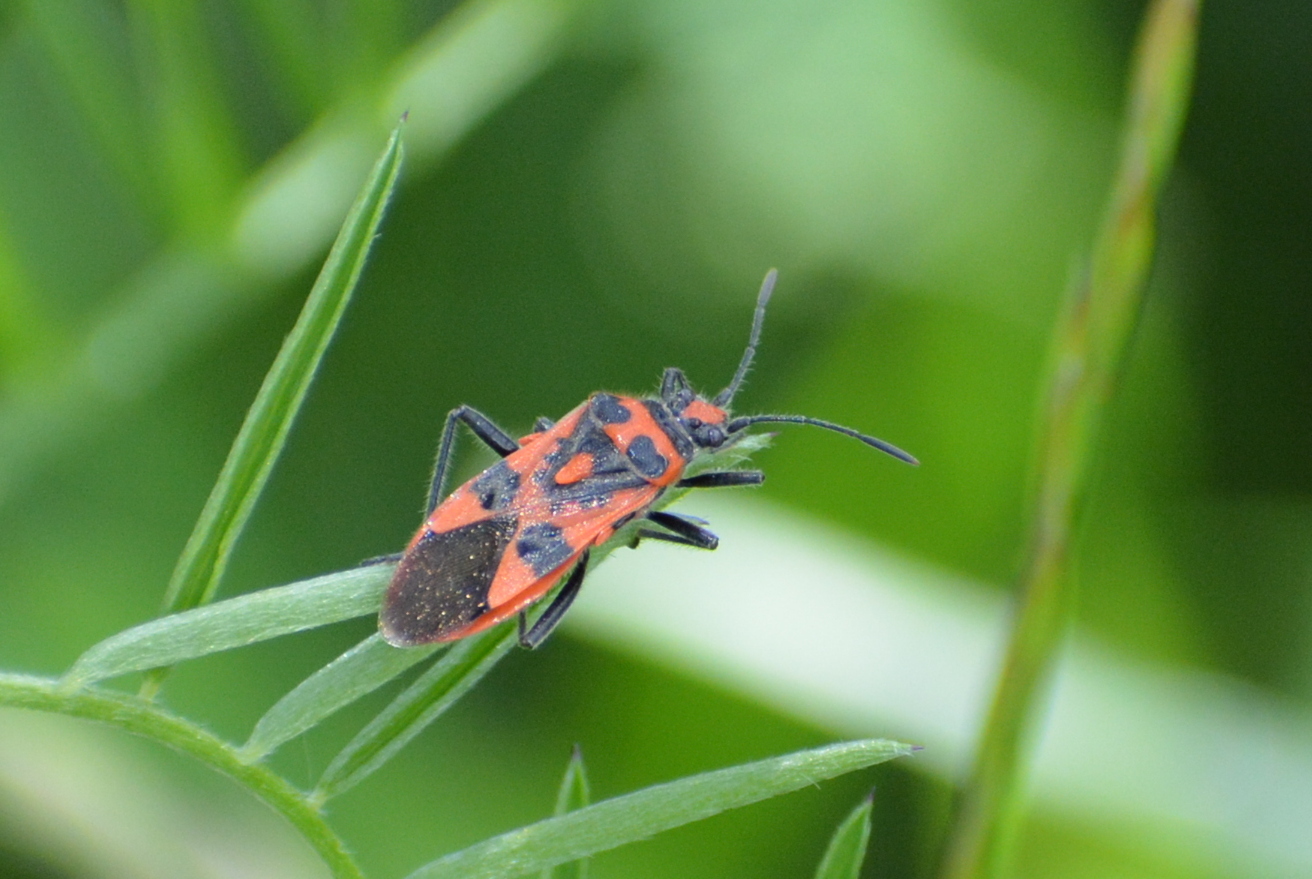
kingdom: Animalia
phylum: Arthropoda
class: Insecta
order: Hemiptera
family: Rhopalidae
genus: Corizus
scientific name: Corizus hyoscyami
